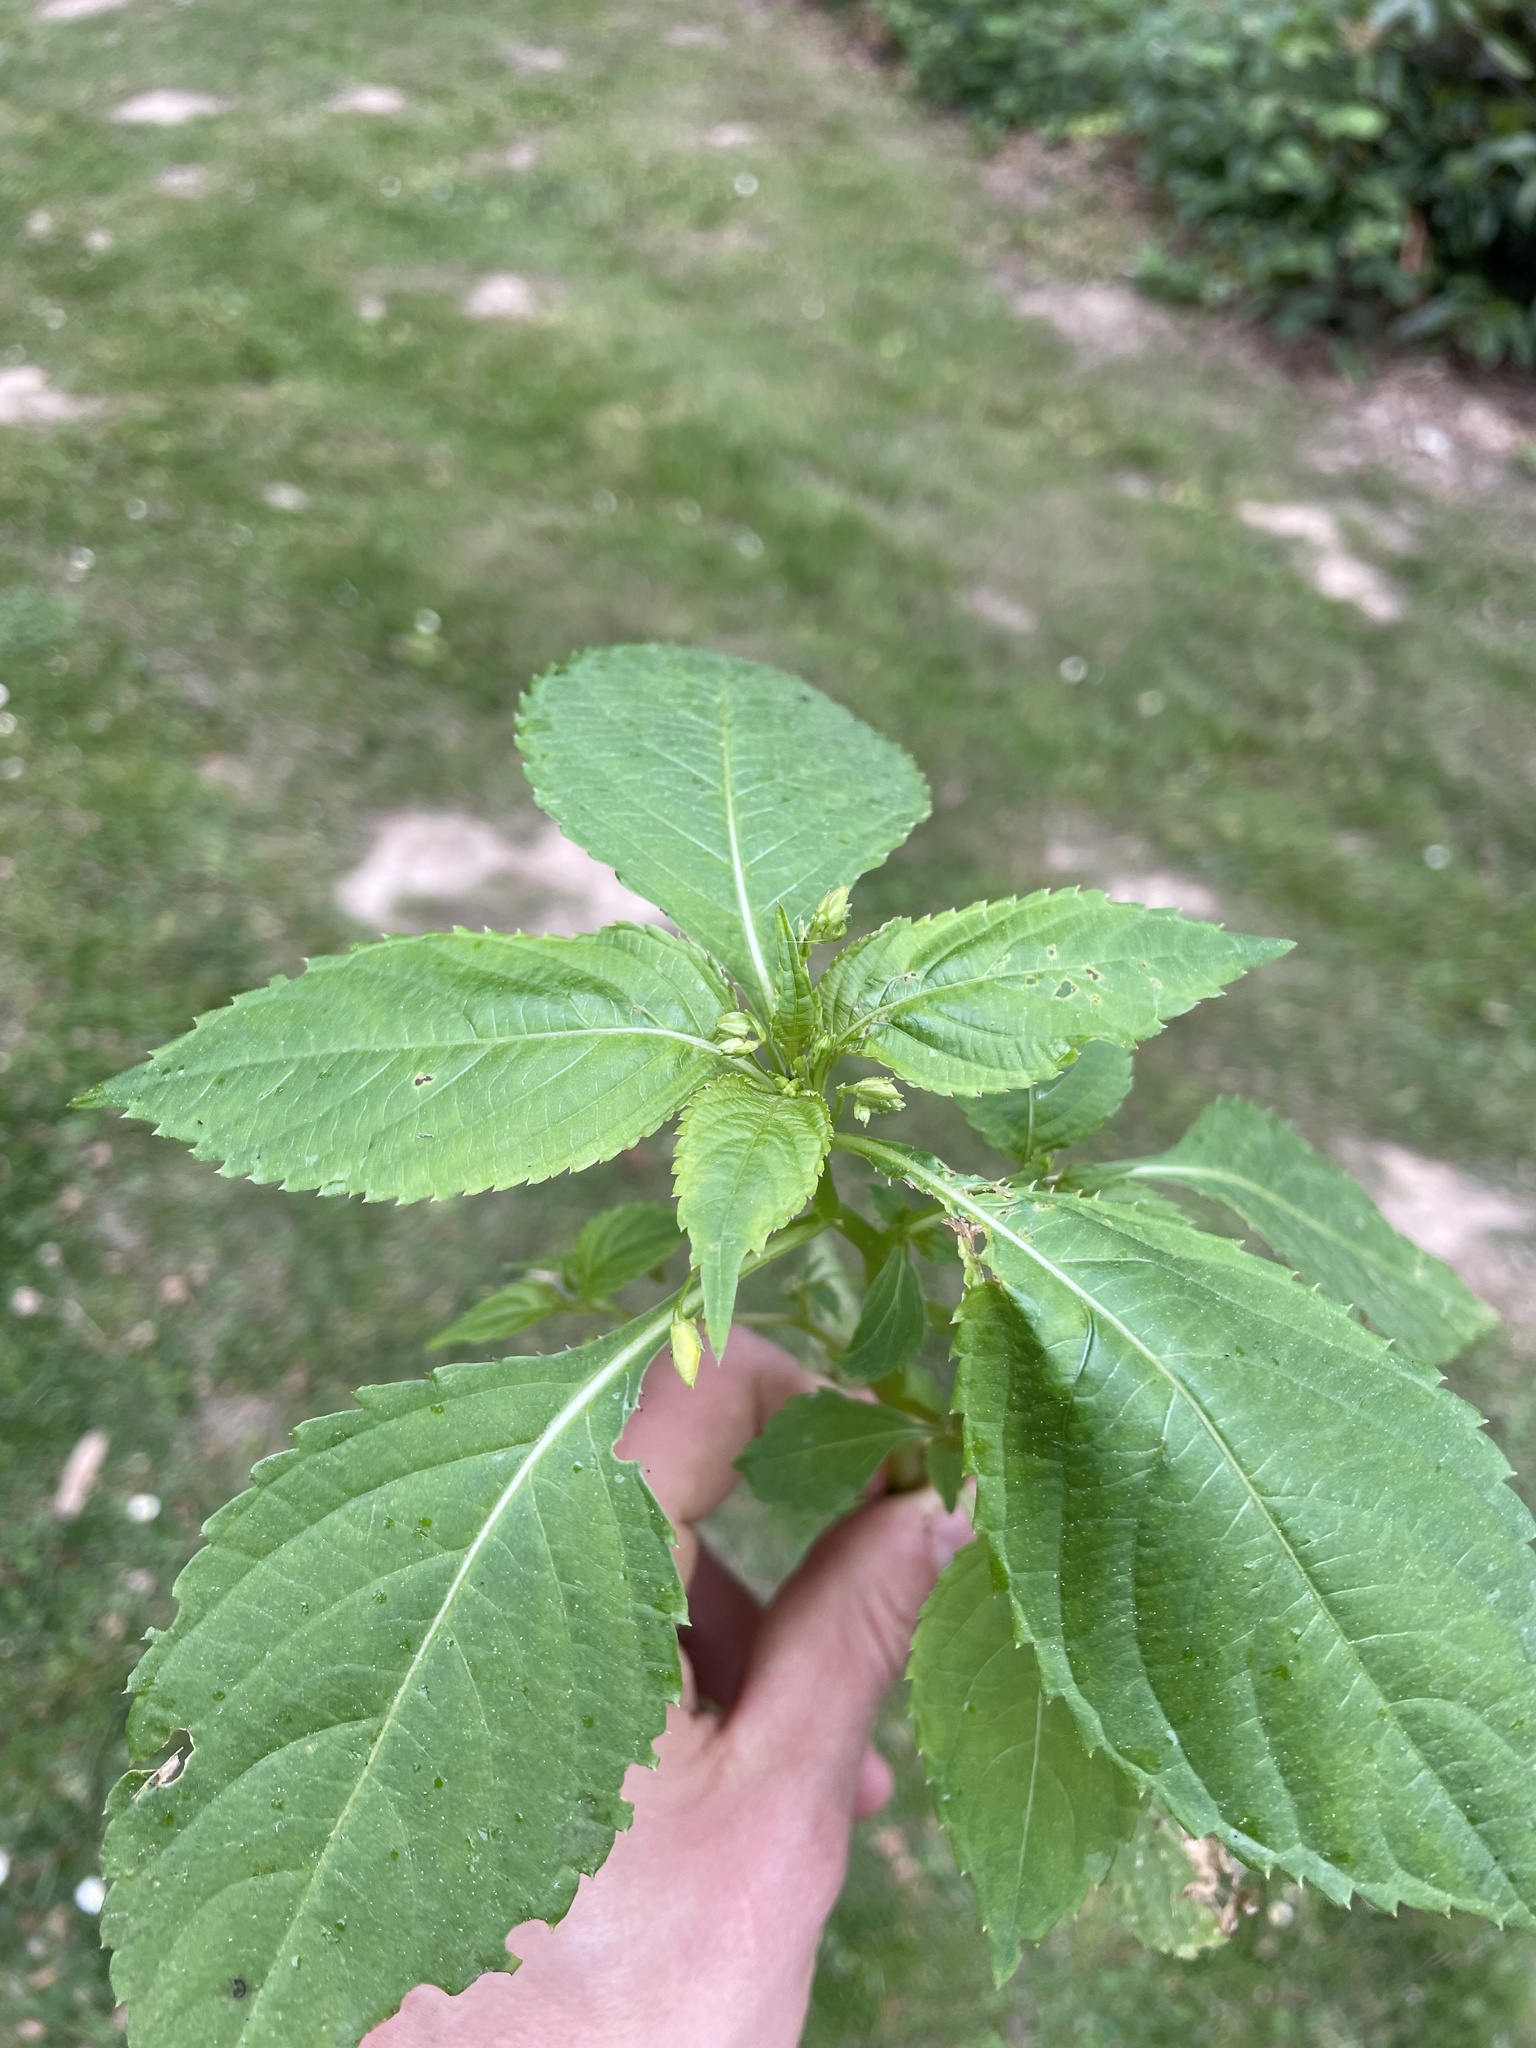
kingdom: Plantae
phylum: Tracheophyta
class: Magnoliopsida
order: Ericales
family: Balsaminaceae
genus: Impatiens
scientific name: Impatiens parviflora
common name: Small balsam
